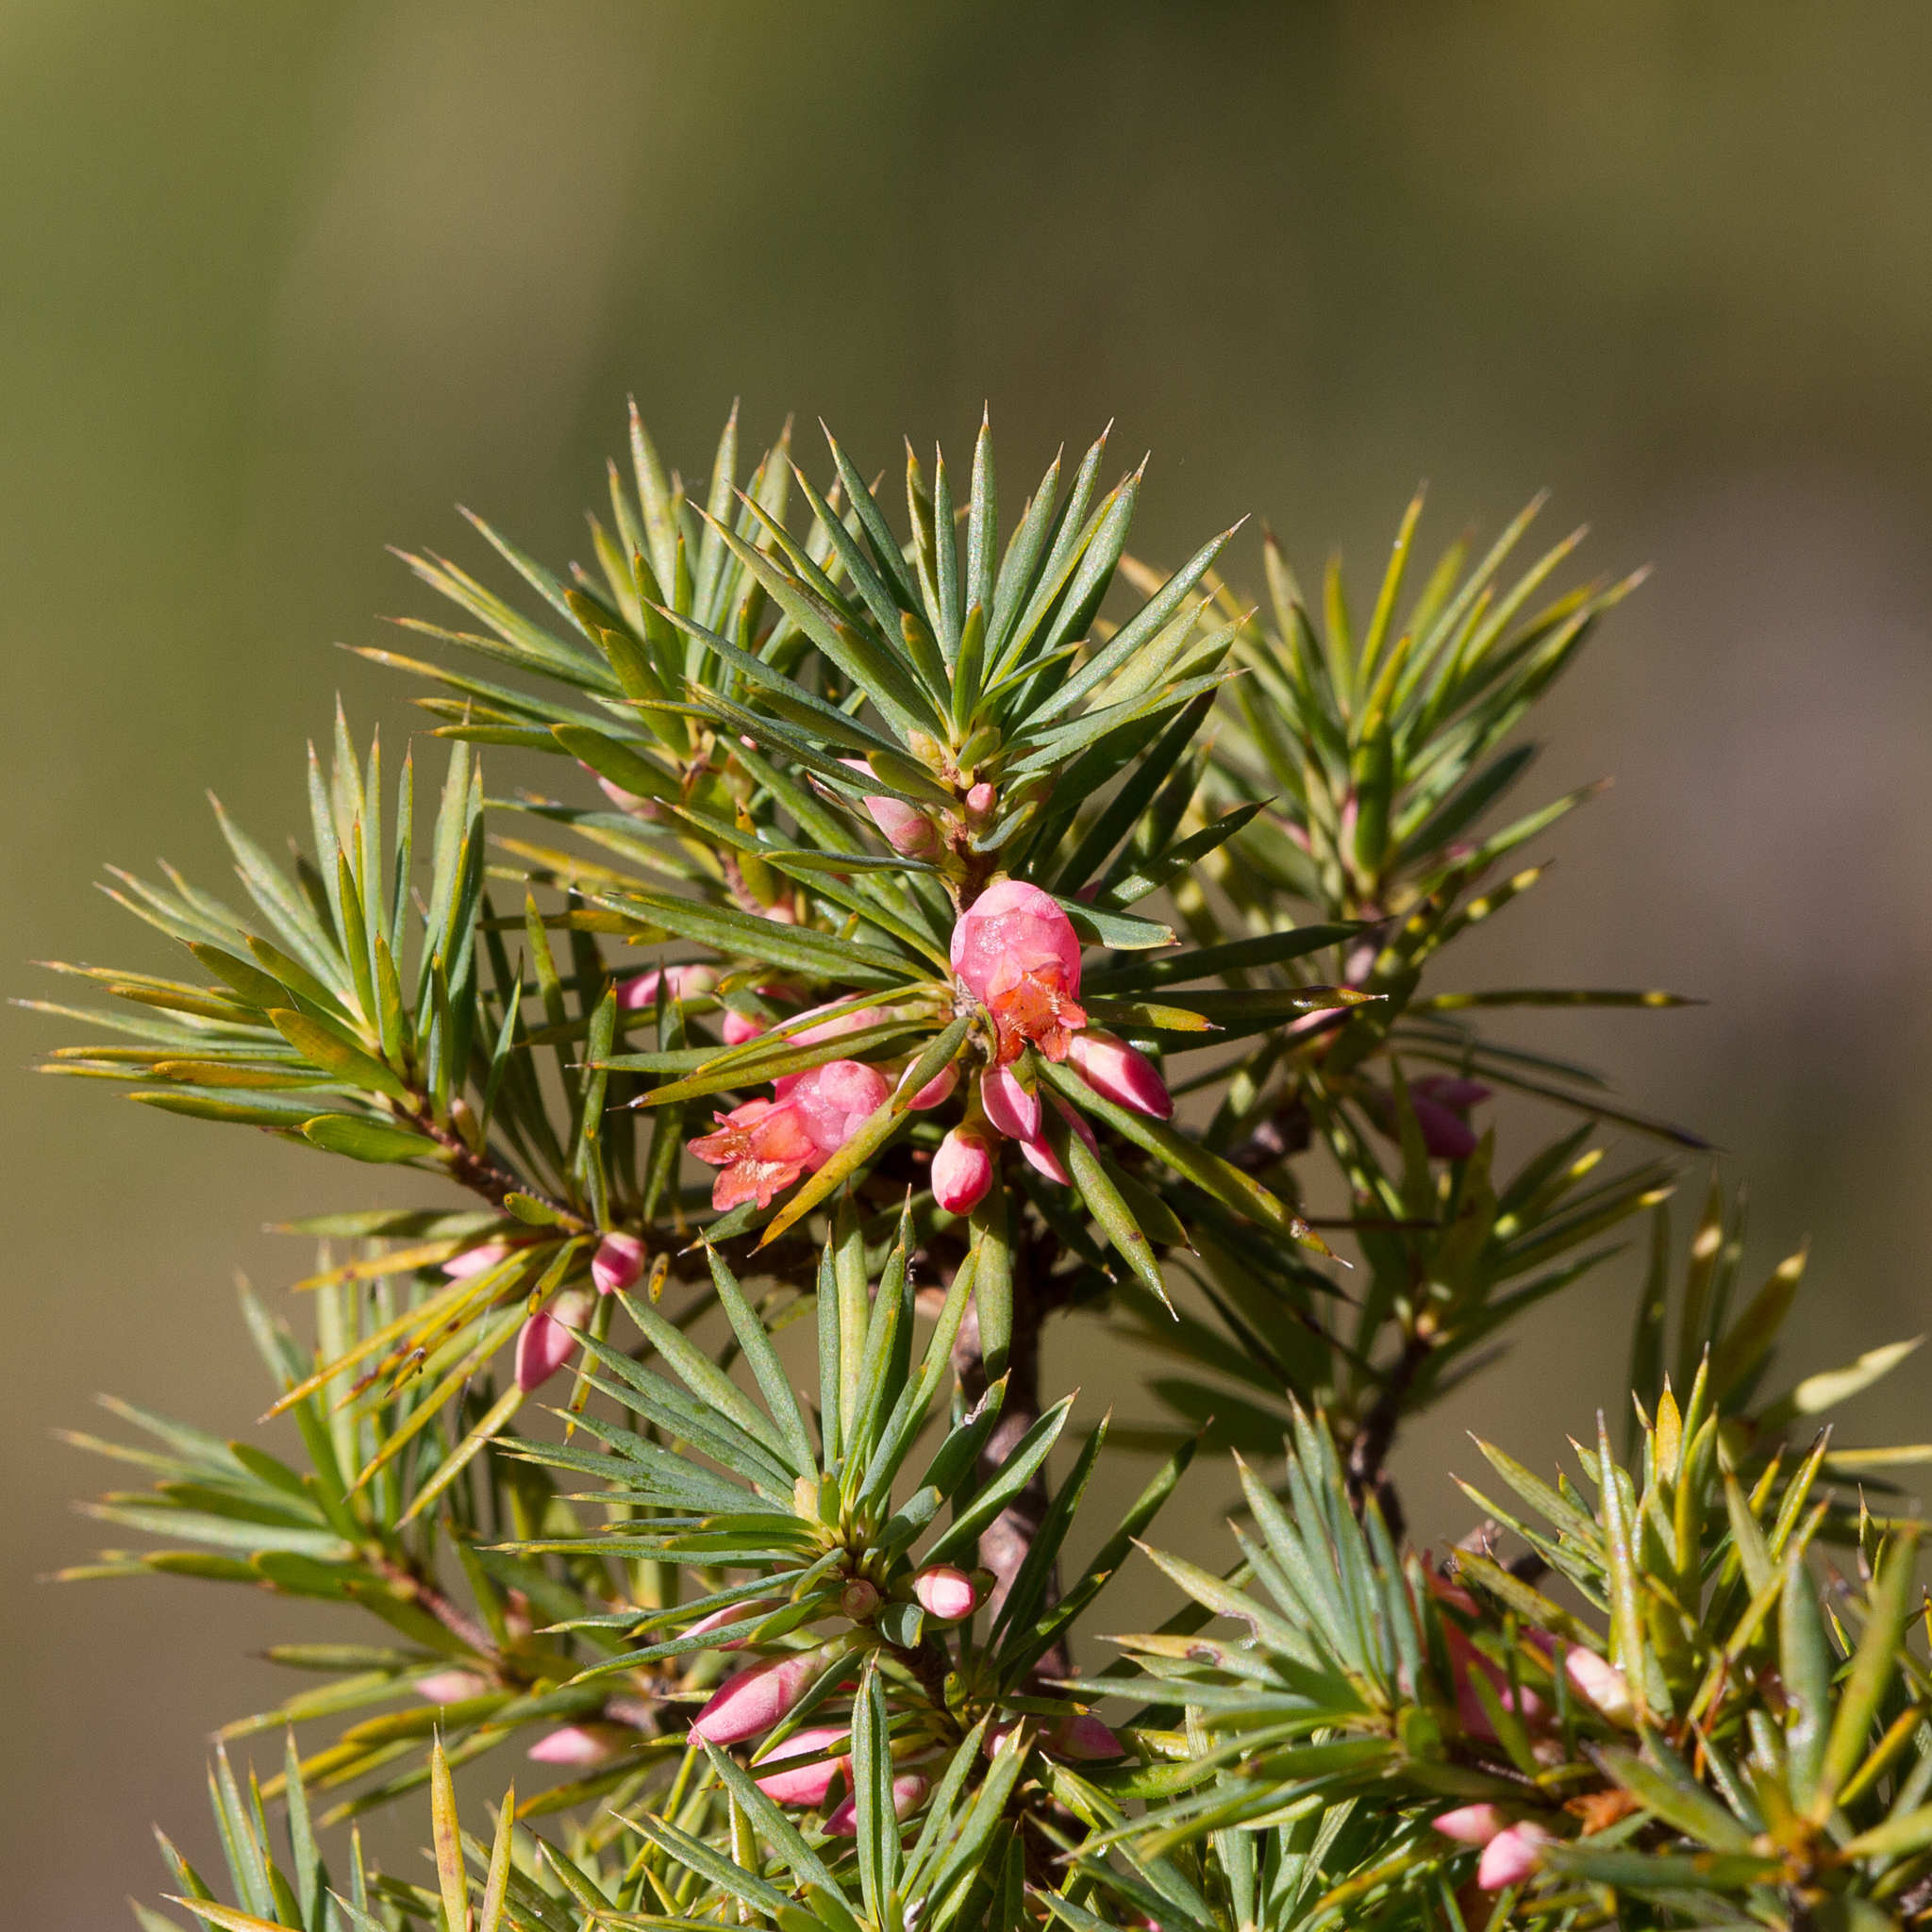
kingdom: Plantae
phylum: Tracheophyta
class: Magnoliopsida
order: Ericales
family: Ericaceae
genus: Brachyloma
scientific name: Brachyloma ericoides
